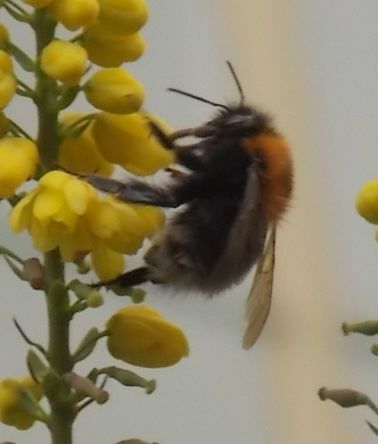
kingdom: Animalia
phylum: Arthropoda
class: Insecta
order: Hymenoptera
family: Apidae
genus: Bombus
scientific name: Bombus hypnorum
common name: New garden bumblebee
